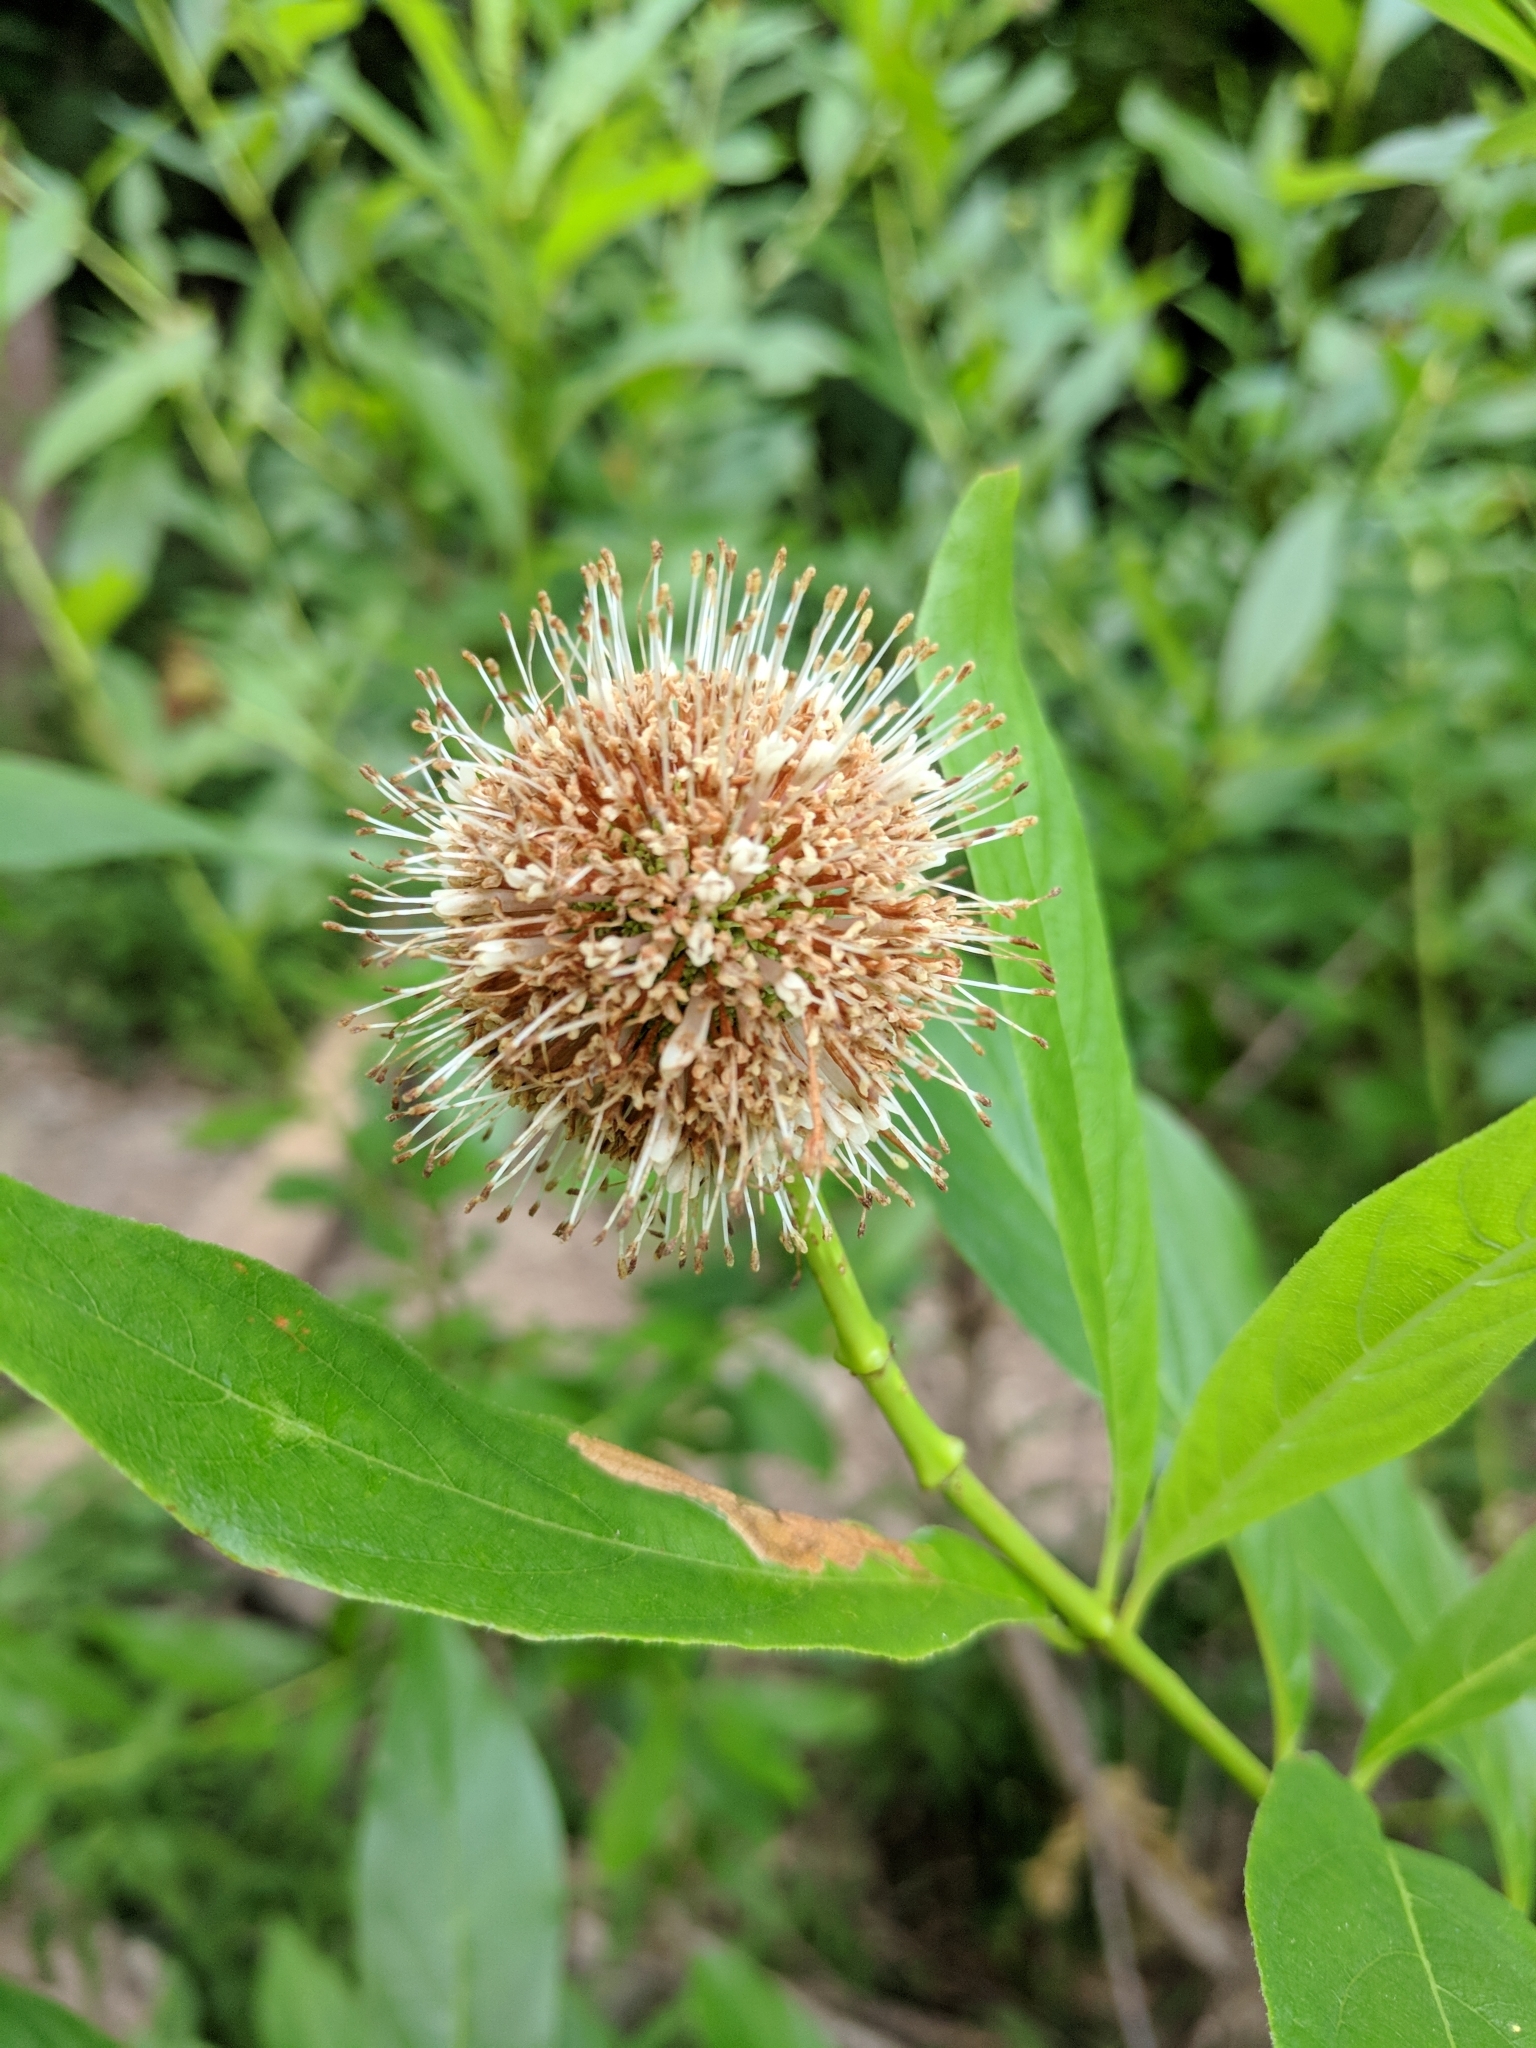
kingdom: Plantae
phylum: Tracheophyta
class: Magnoliopsida
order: Gentianales
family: Rubiaceae
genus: Cephalanthus
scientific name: Cephalanthus occidentalis
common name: Button-willow
